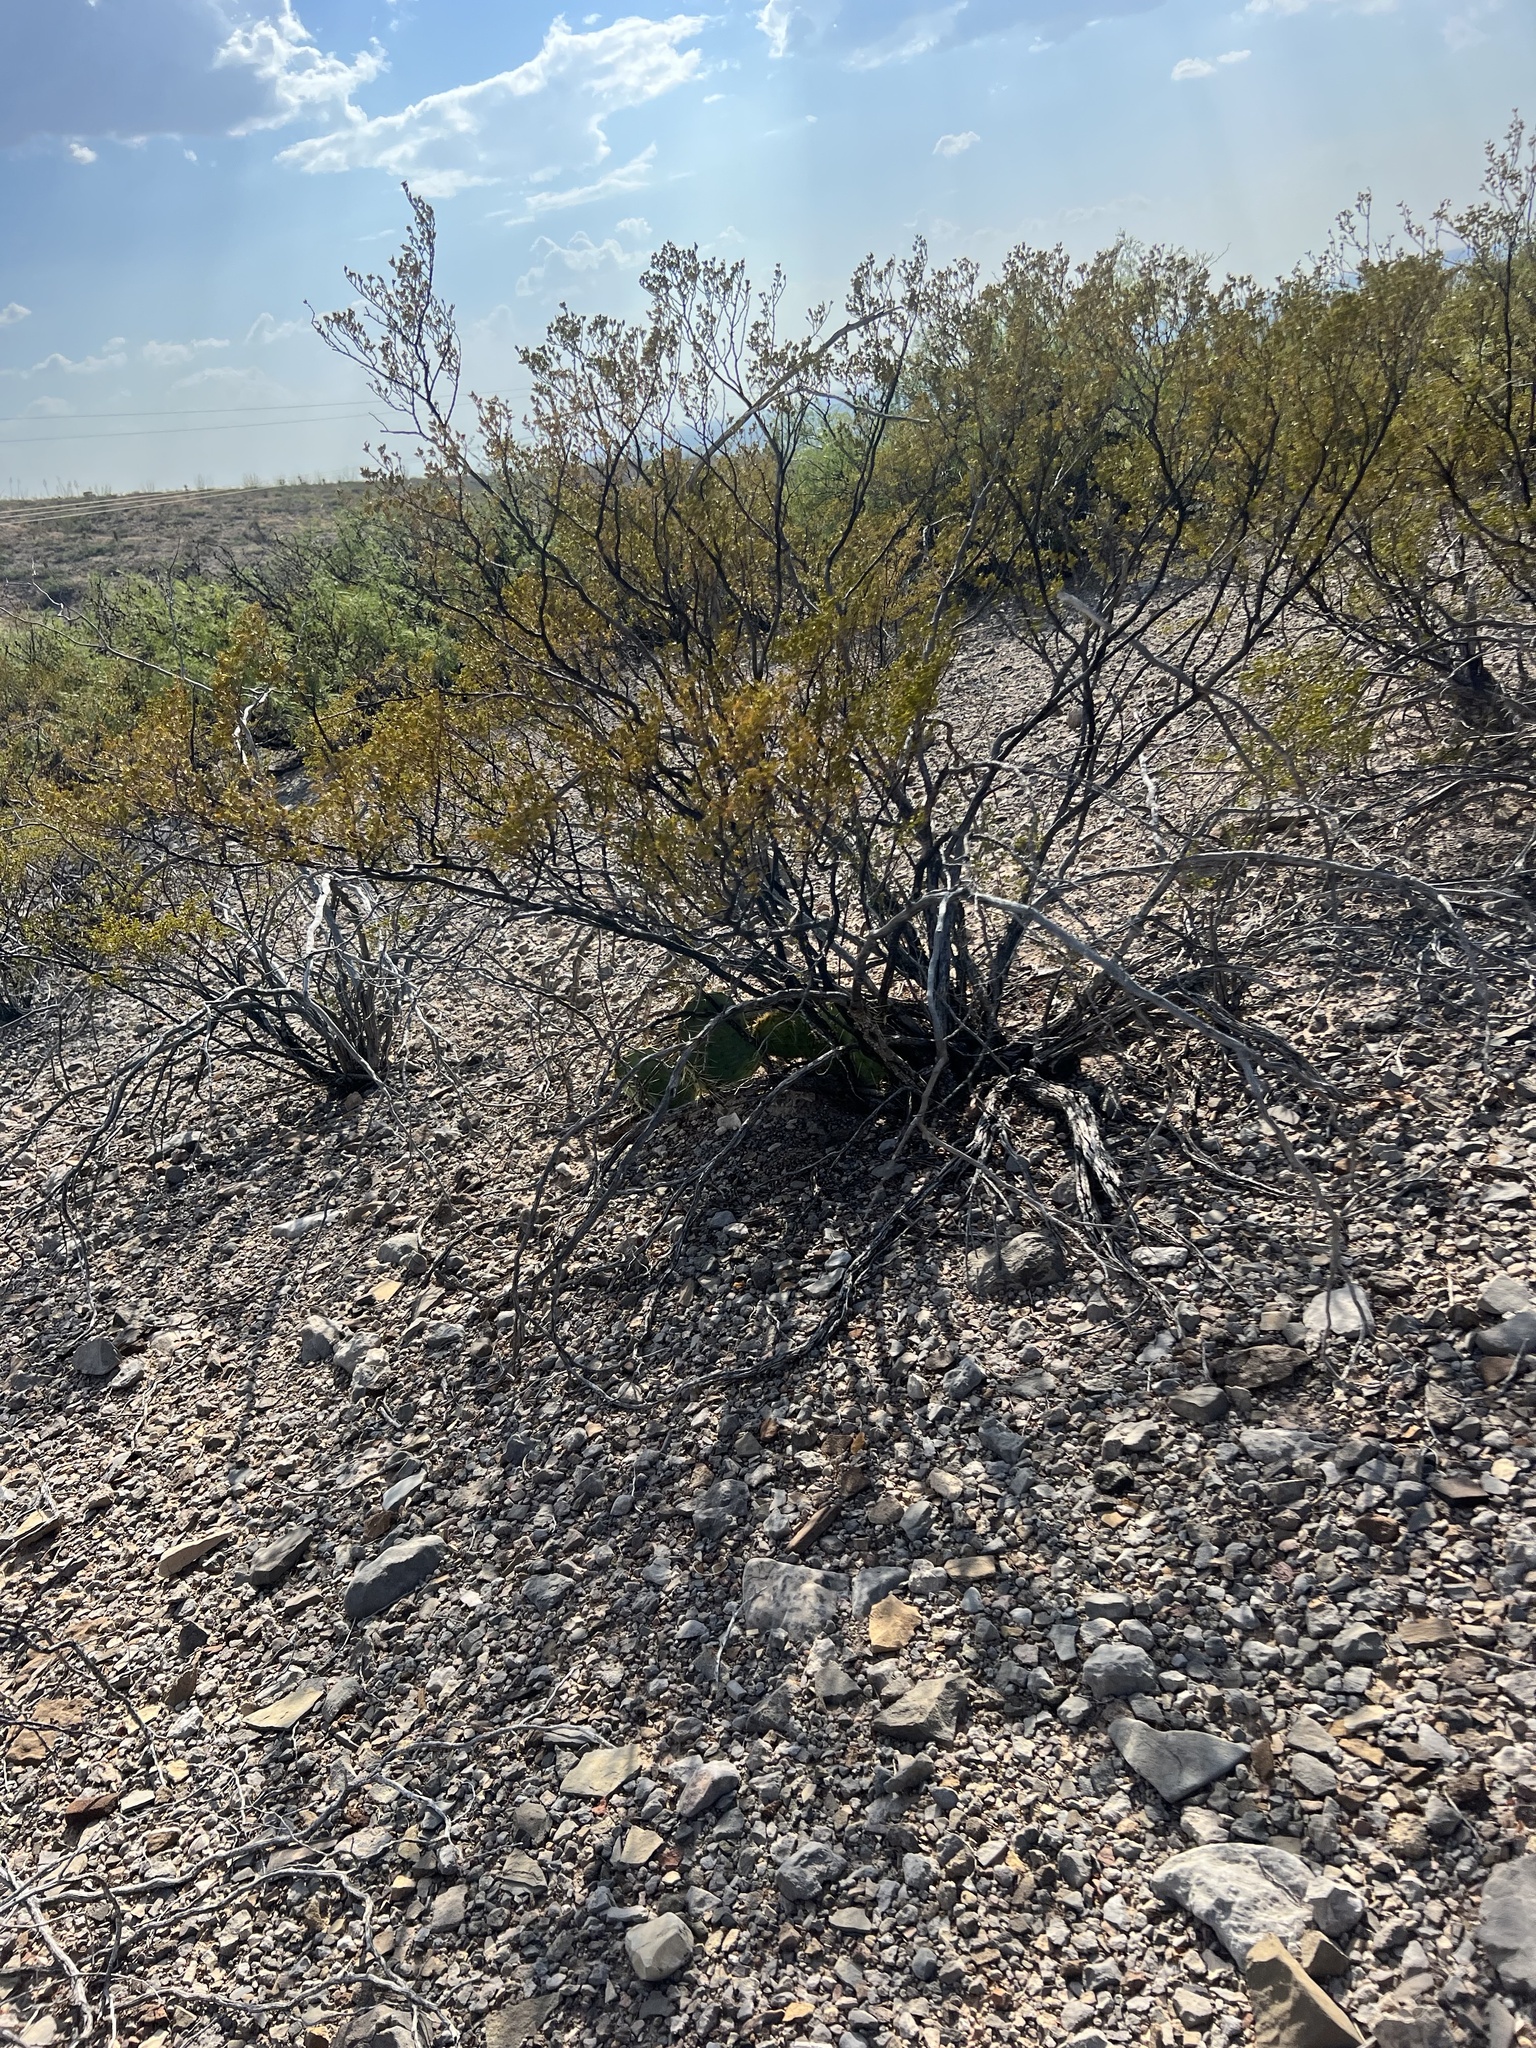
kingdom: Plantae
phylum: Tracheophyta
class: Magnoliopsida
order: Zygophyllales
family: Zygophyllaceae
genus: Larrea
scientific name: Larrea tridentata
